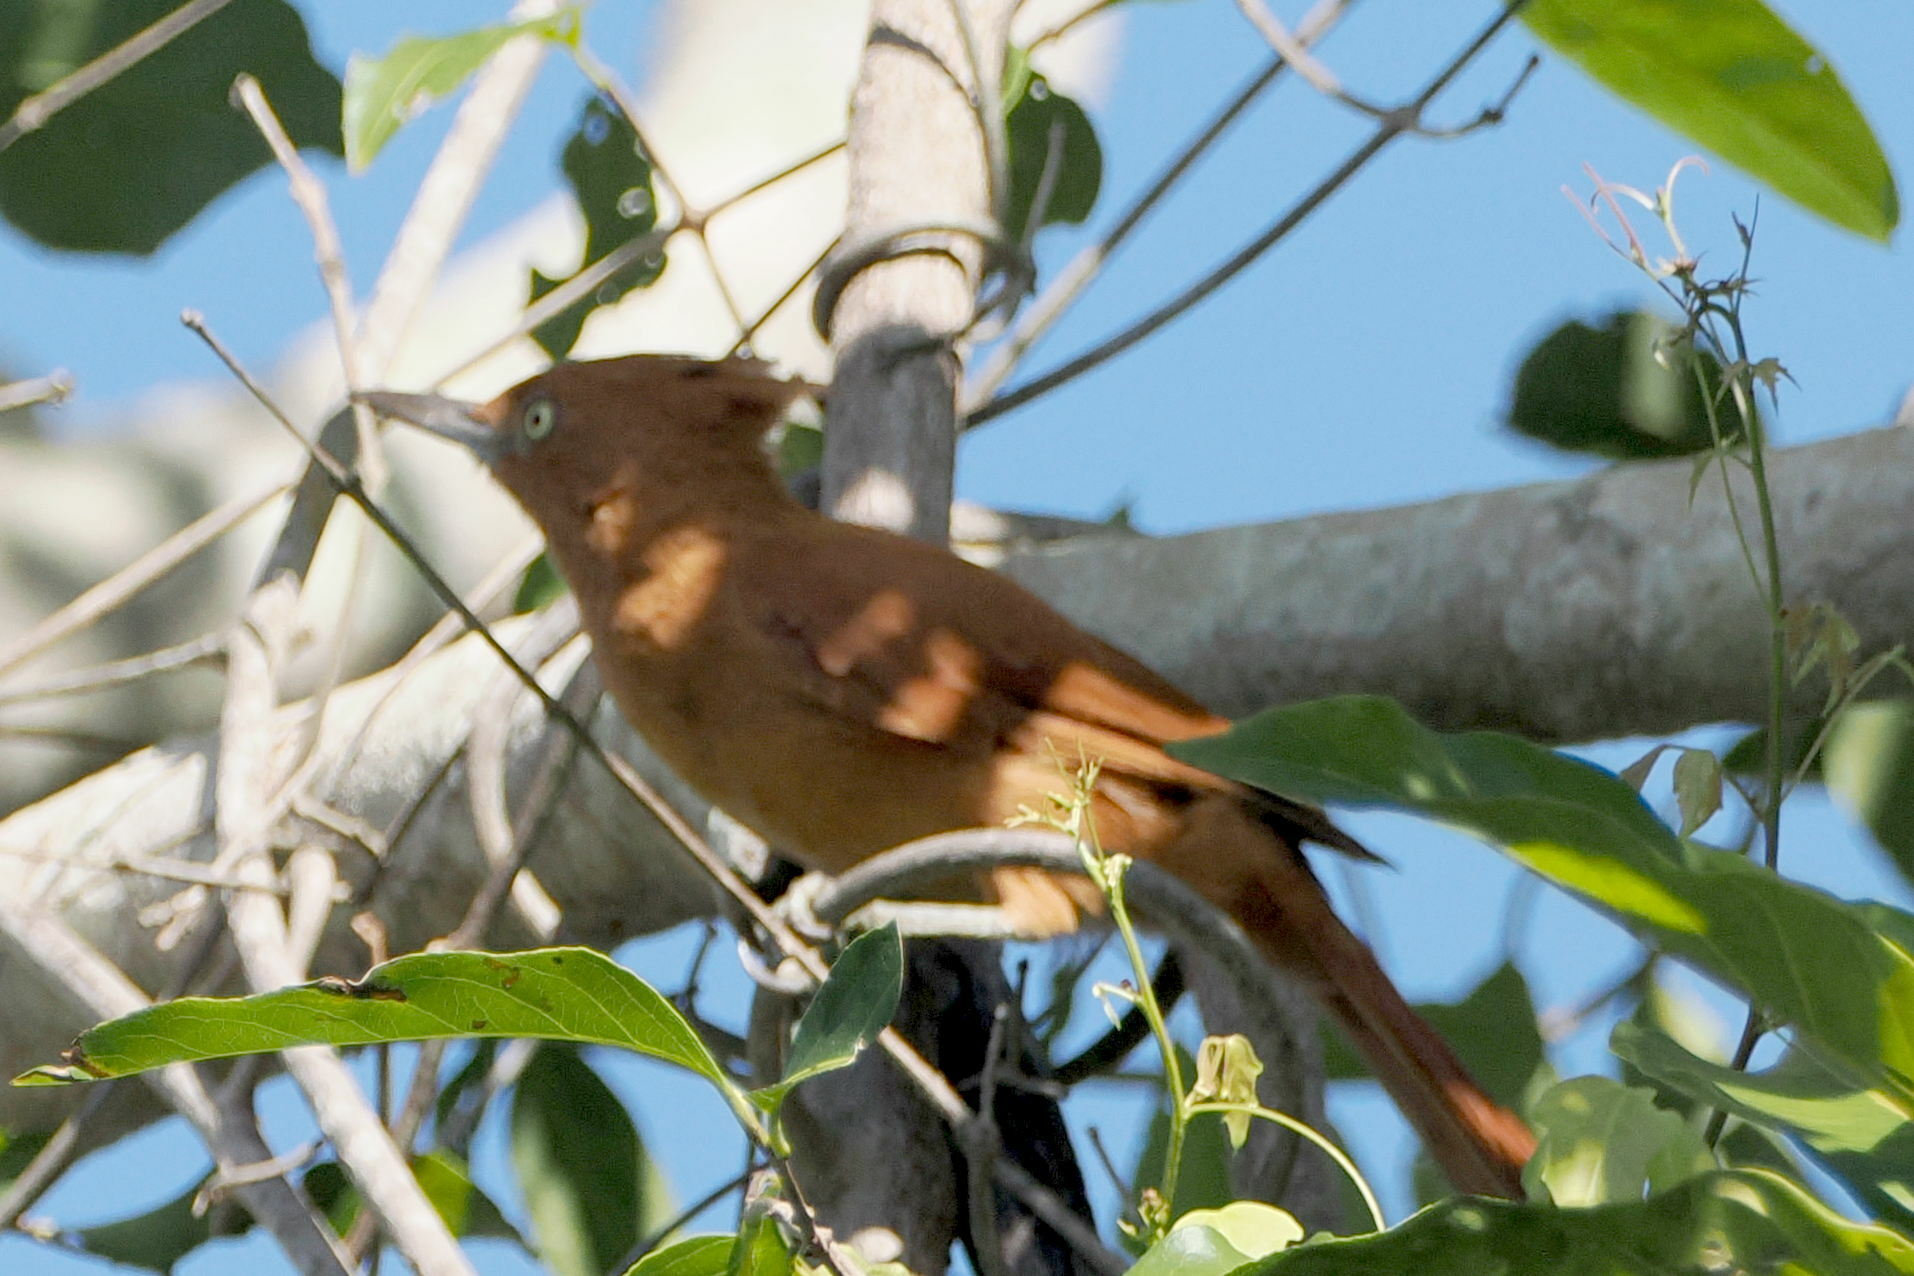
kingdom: Animalia
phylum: Chordata
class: Aves
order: Passeriformes
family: Furnariidae
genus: Pseudoseisura
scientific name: Pseudoseisura cristata
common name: Caatinga cacholote
